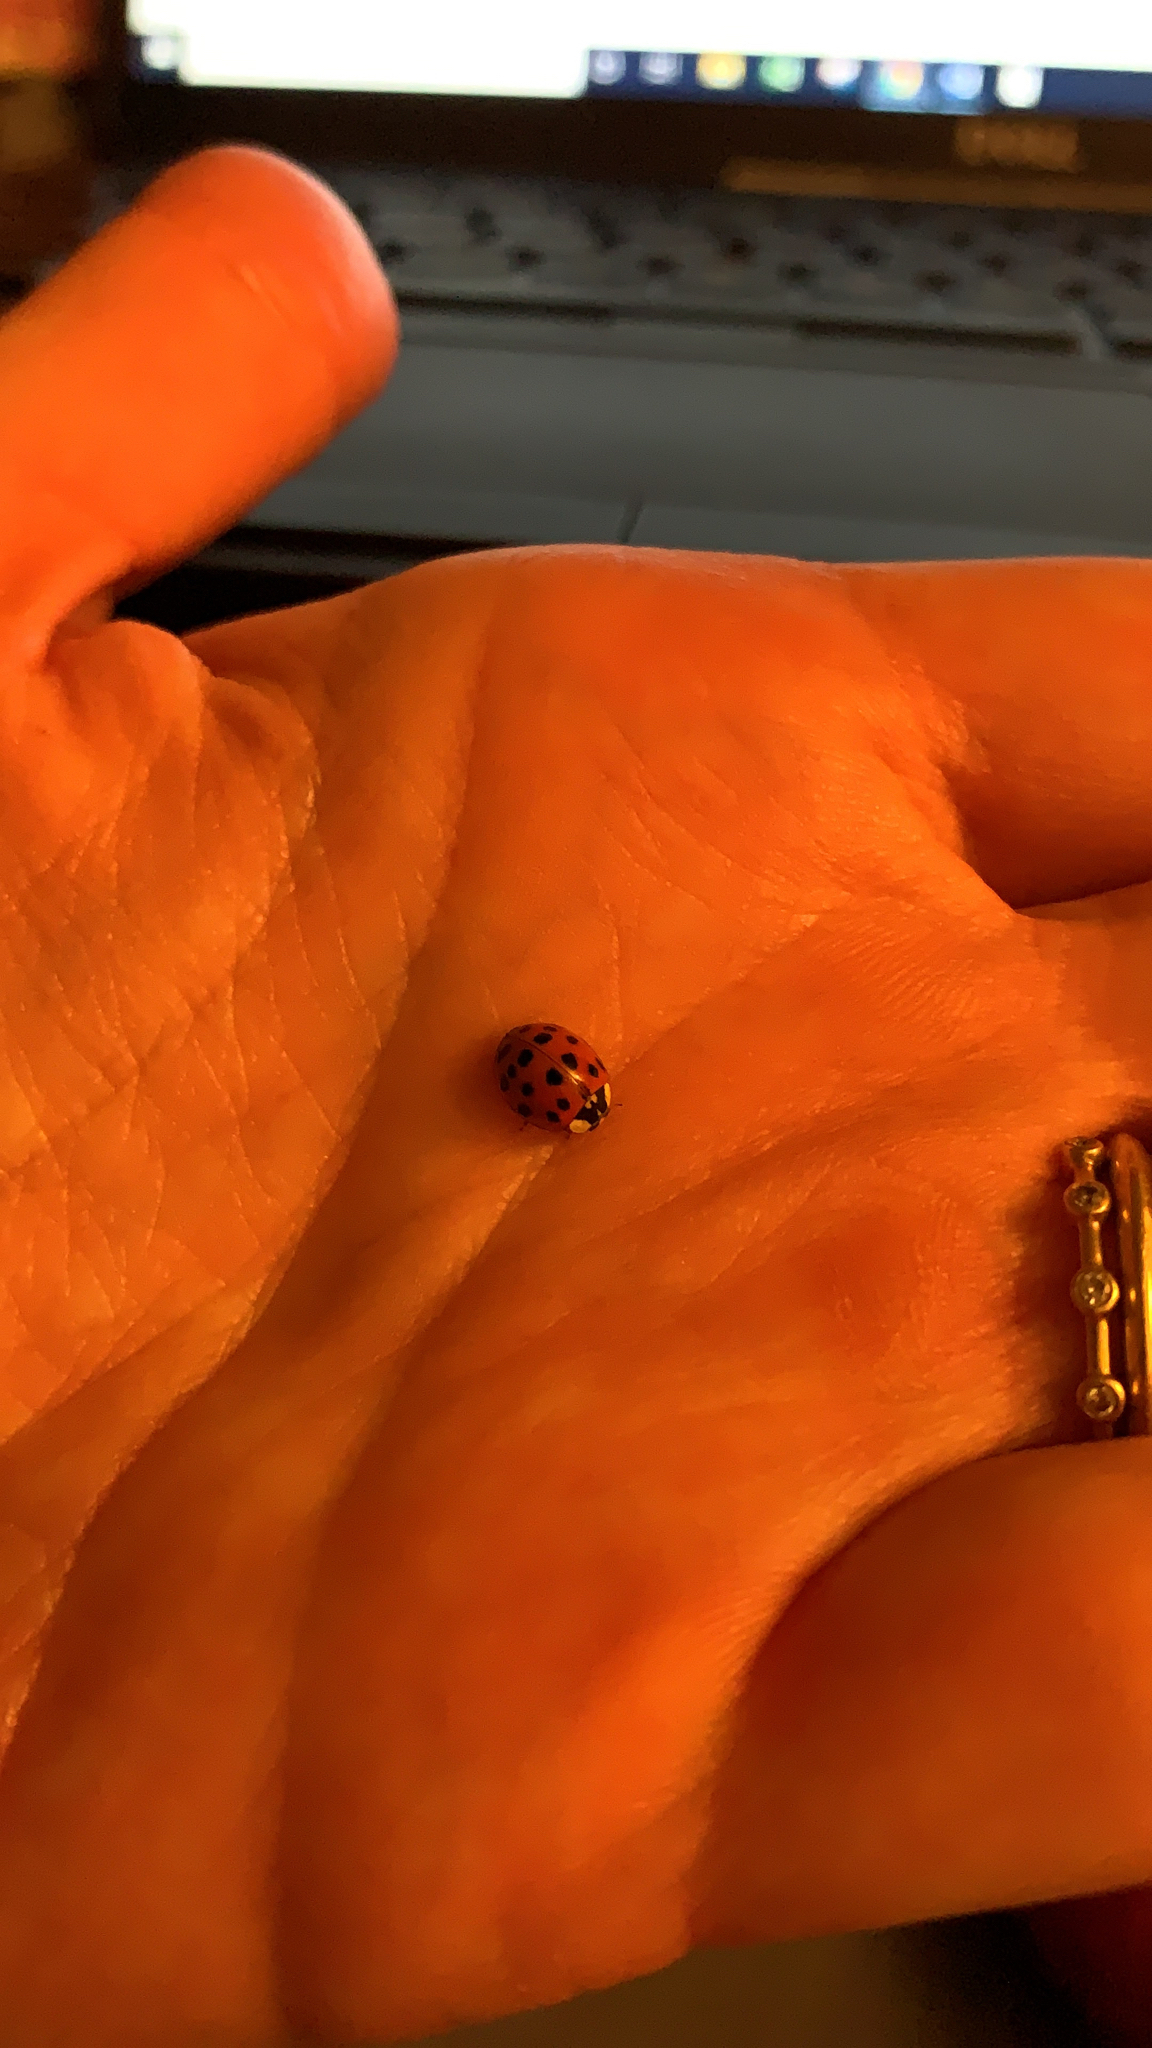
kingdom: Animalia
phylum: Arthropoda
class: Insecta
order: Coleoptera
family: Coccinellidae
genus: Harmonia
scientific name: Harmonia axyridis
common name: Harlequin ladybird
